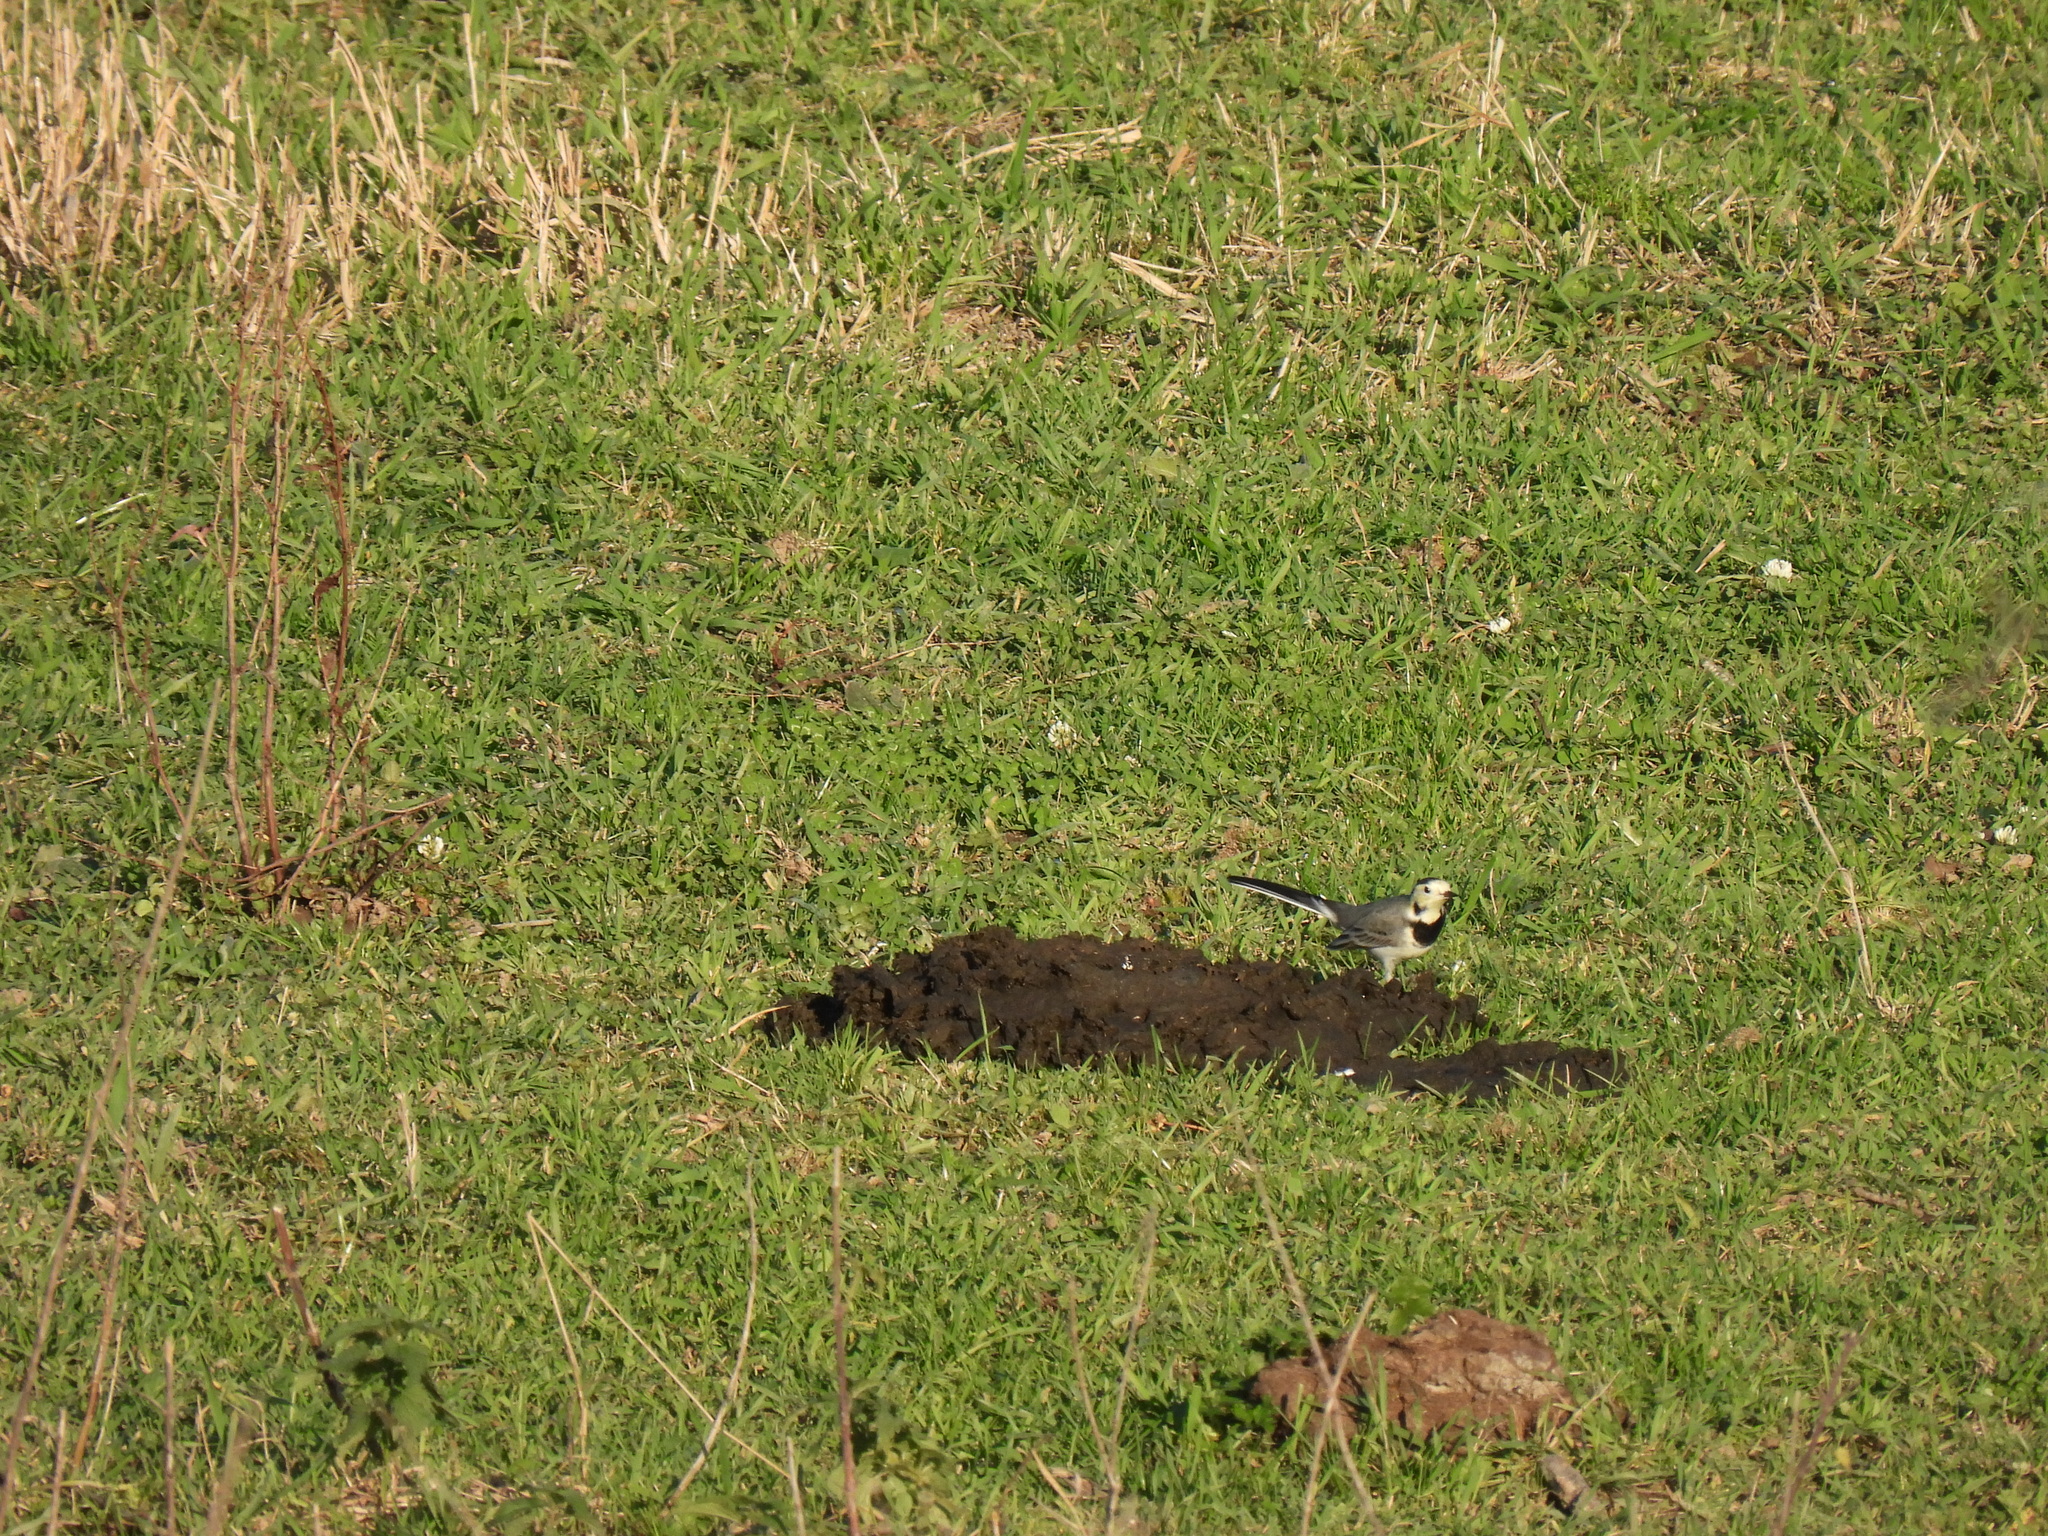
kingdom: Animalia
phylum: Chordata
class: Aves
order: Passeriformes
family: Motacillidae
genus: Motacilla
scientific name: Motacilla alba
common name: White wagtail
